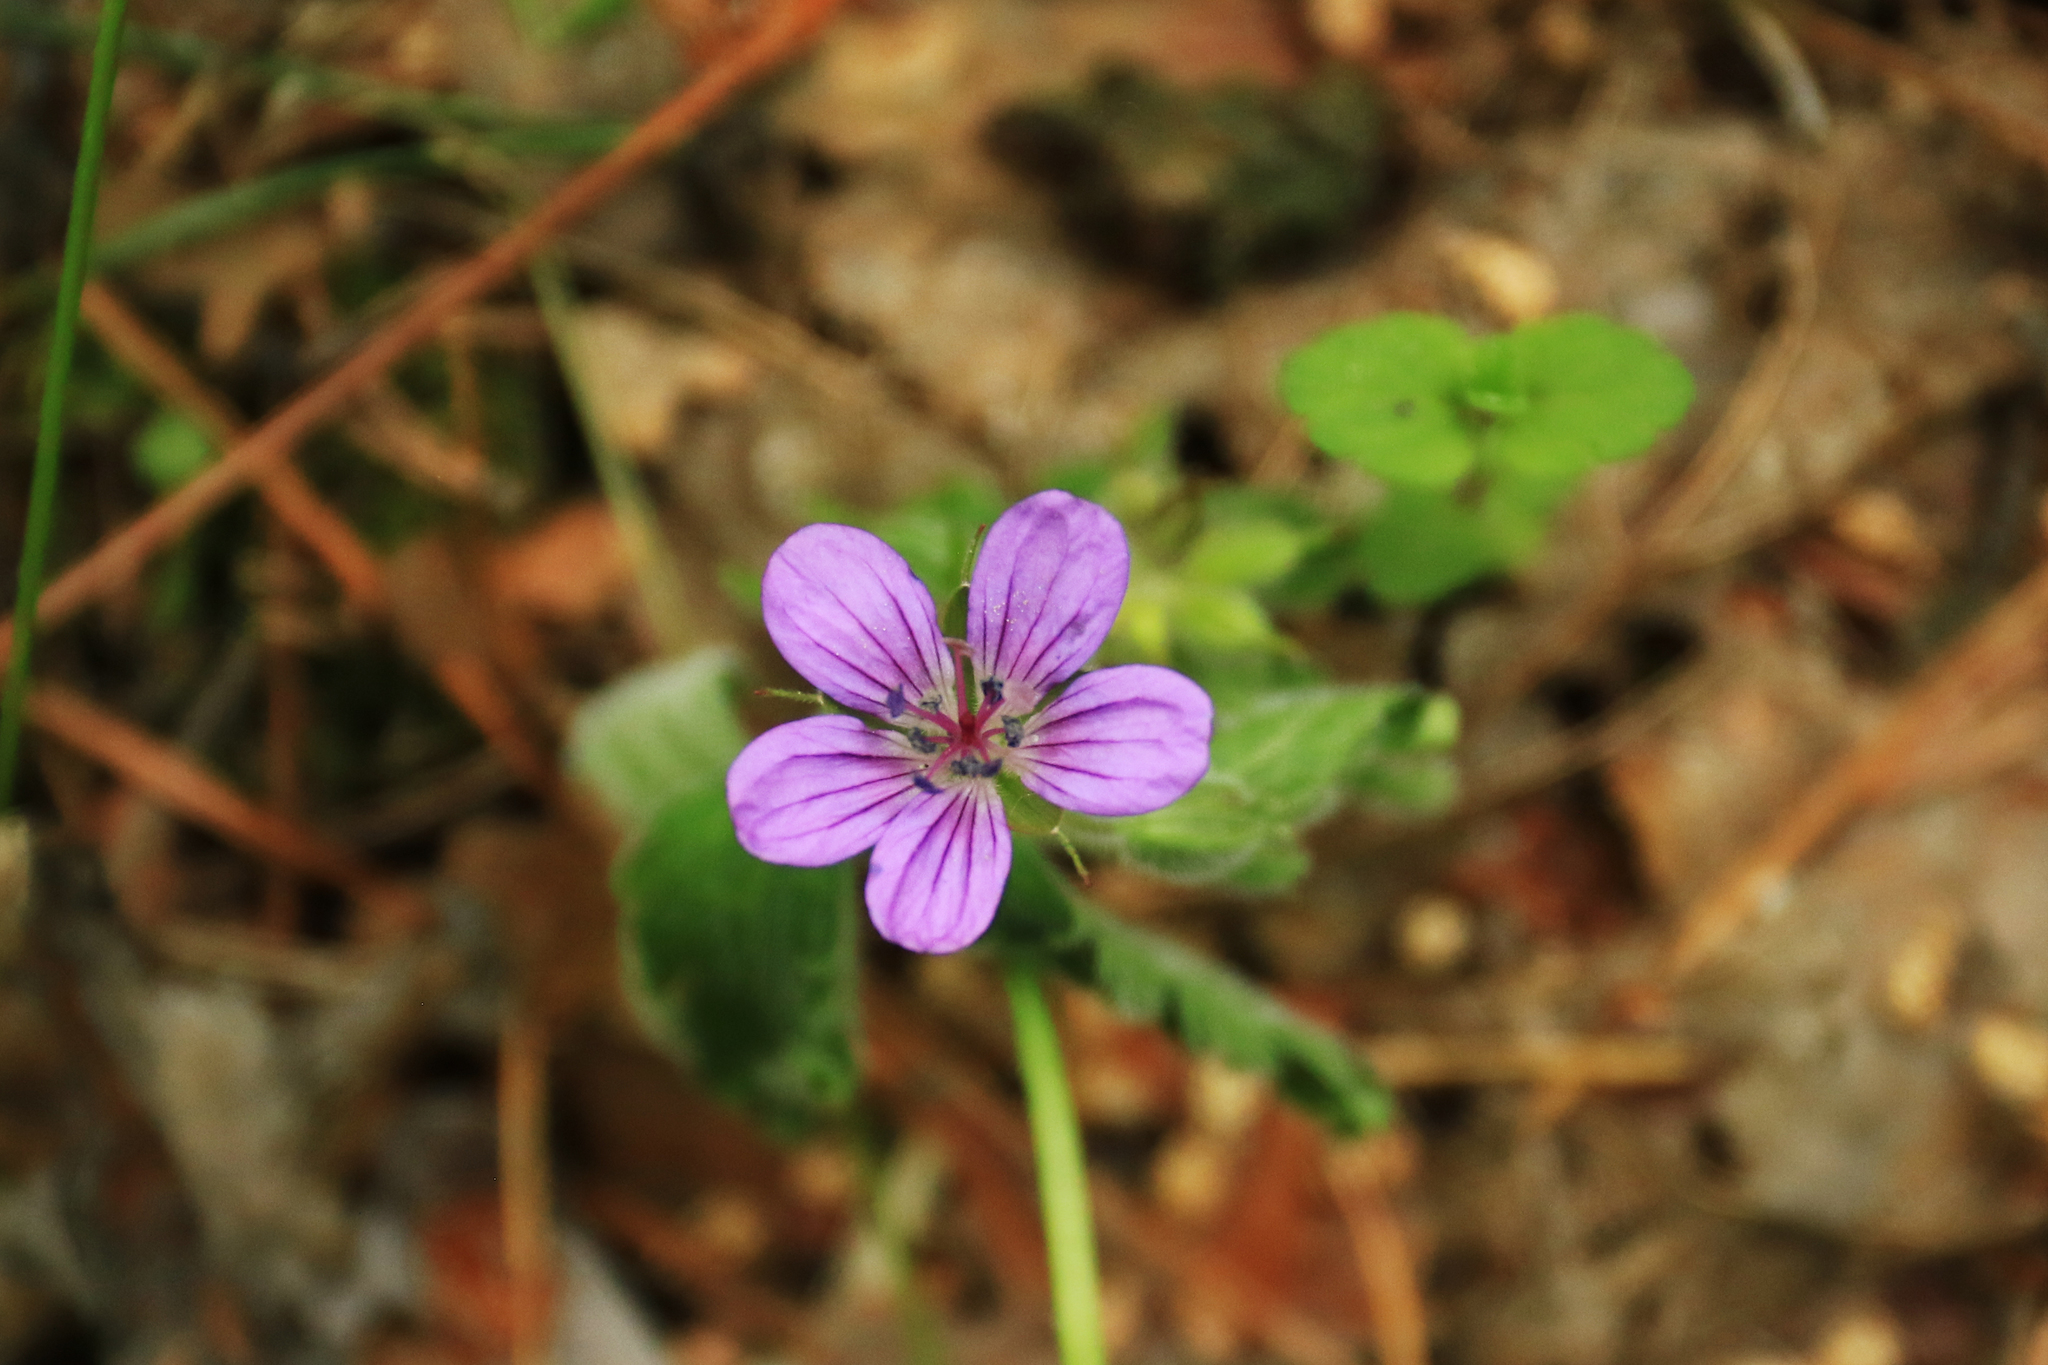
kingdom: Plantae
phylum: Tracheophyta
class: Magnoliopsida
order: Geraniales
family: Geraniaceae
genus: Geranium
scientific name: Geranium sylvaticum
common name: Wood crane's-bill
